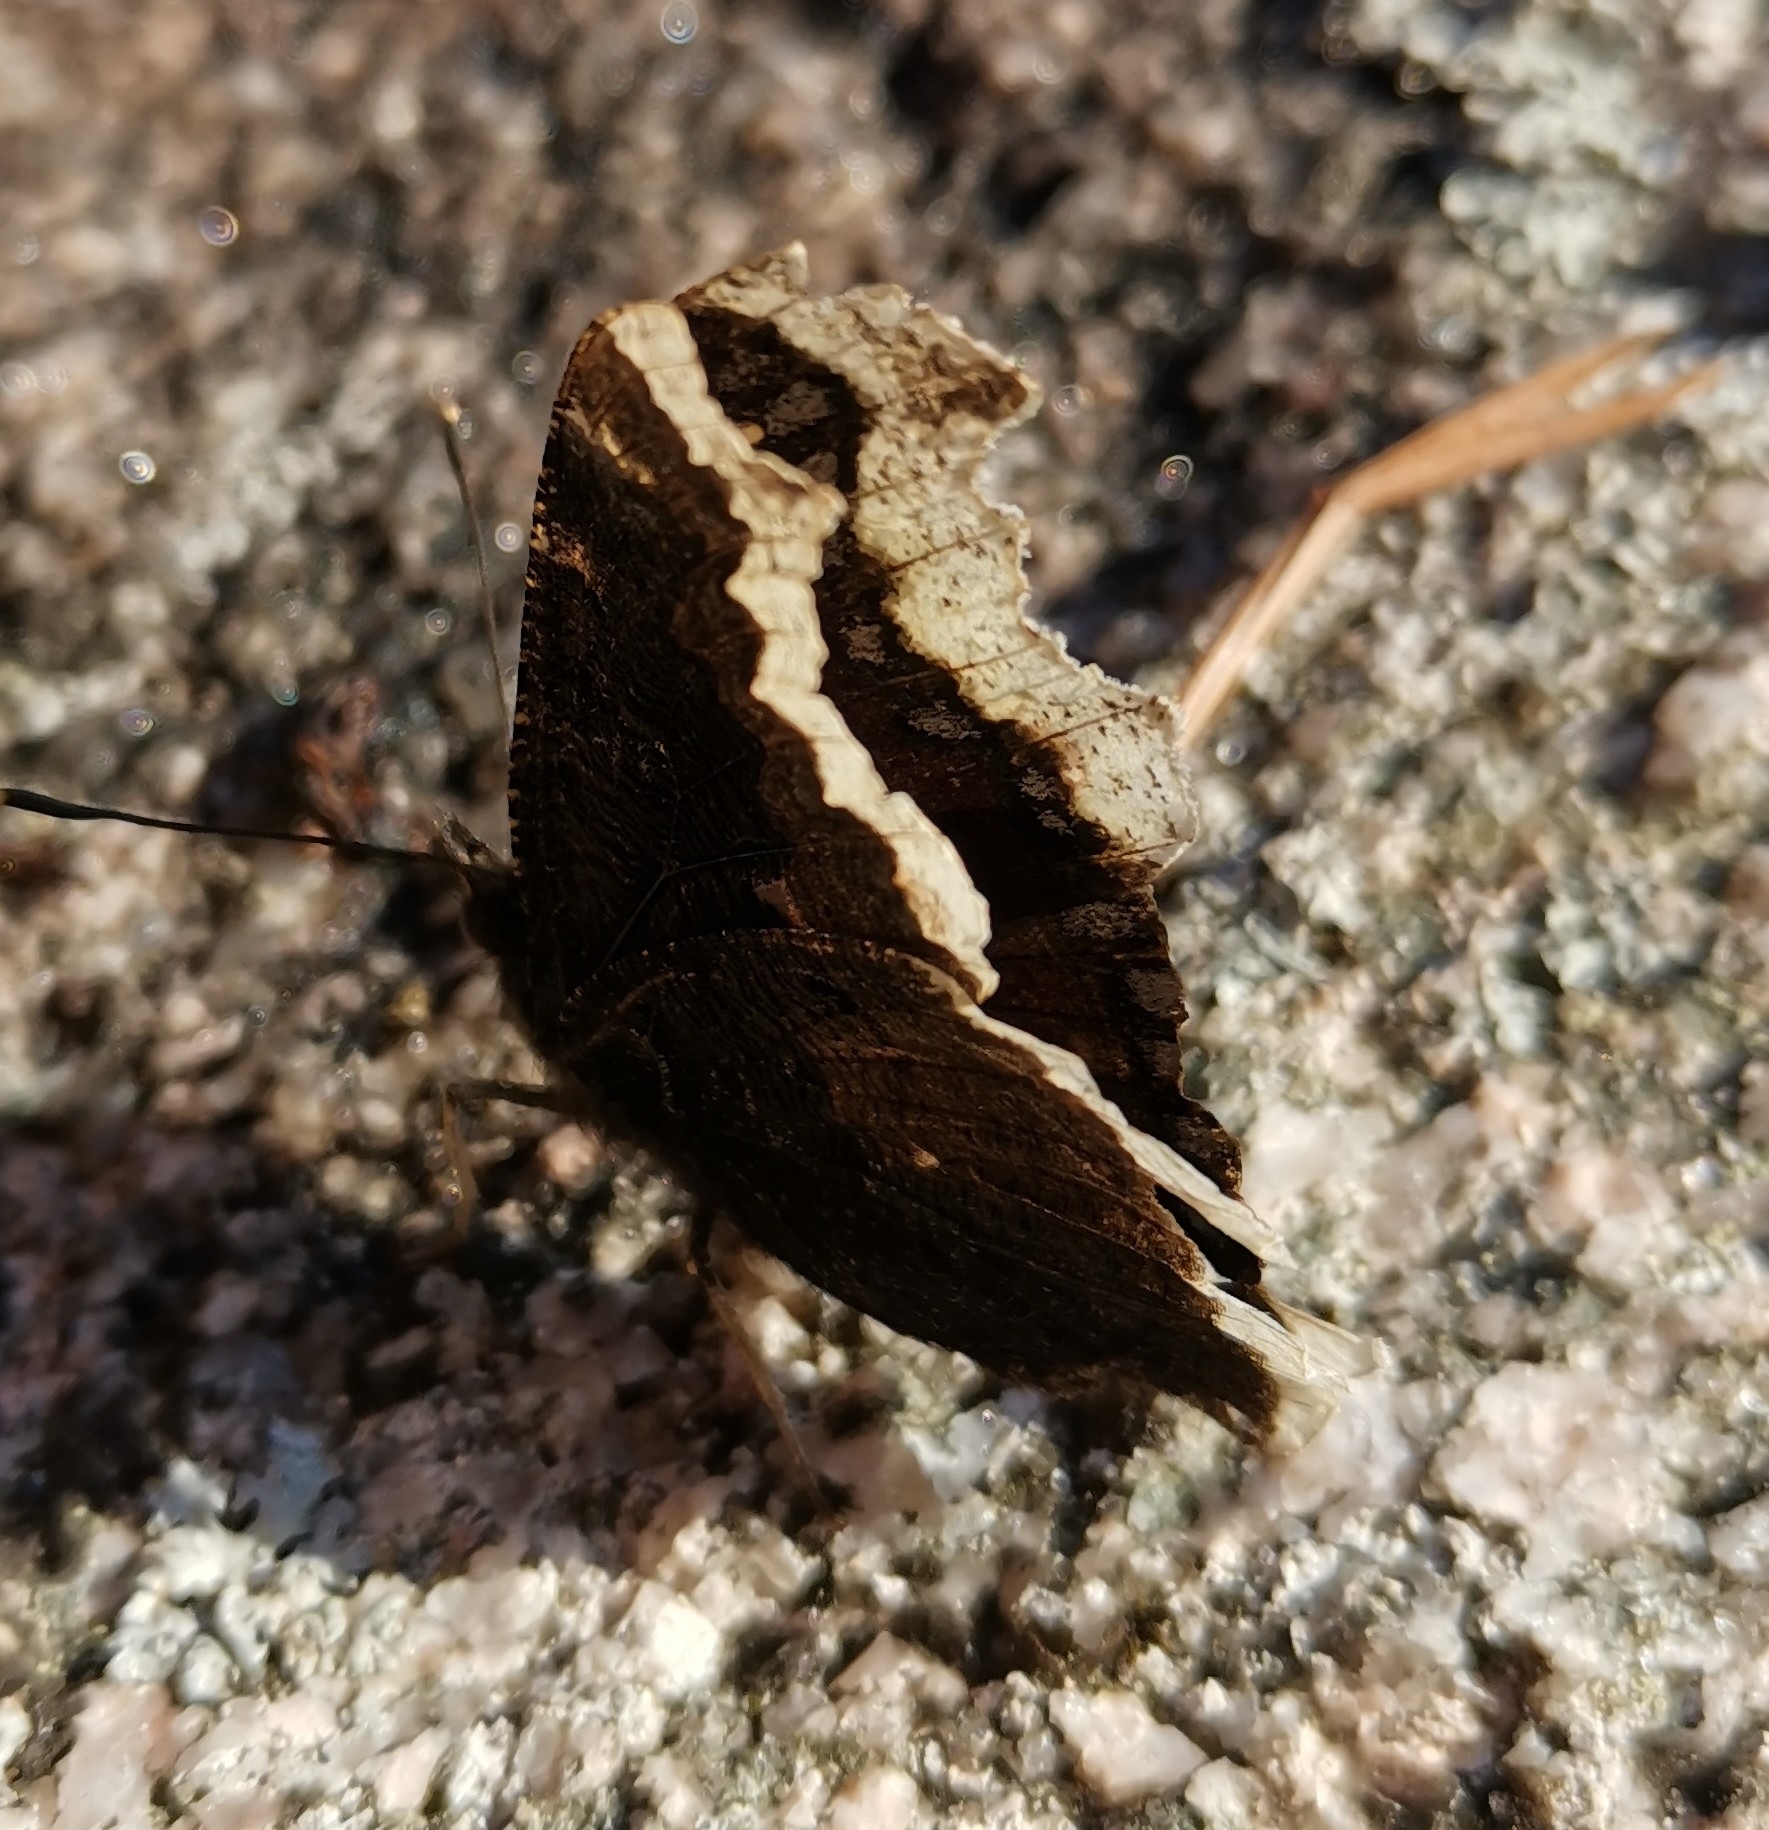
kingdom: Animalia
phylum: Arthropoda
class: Insecta
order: Lepidoptera
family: Nymphalidae
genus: Nymphalis
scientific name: Nymphalis antiopa
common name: Camberwell beauty
